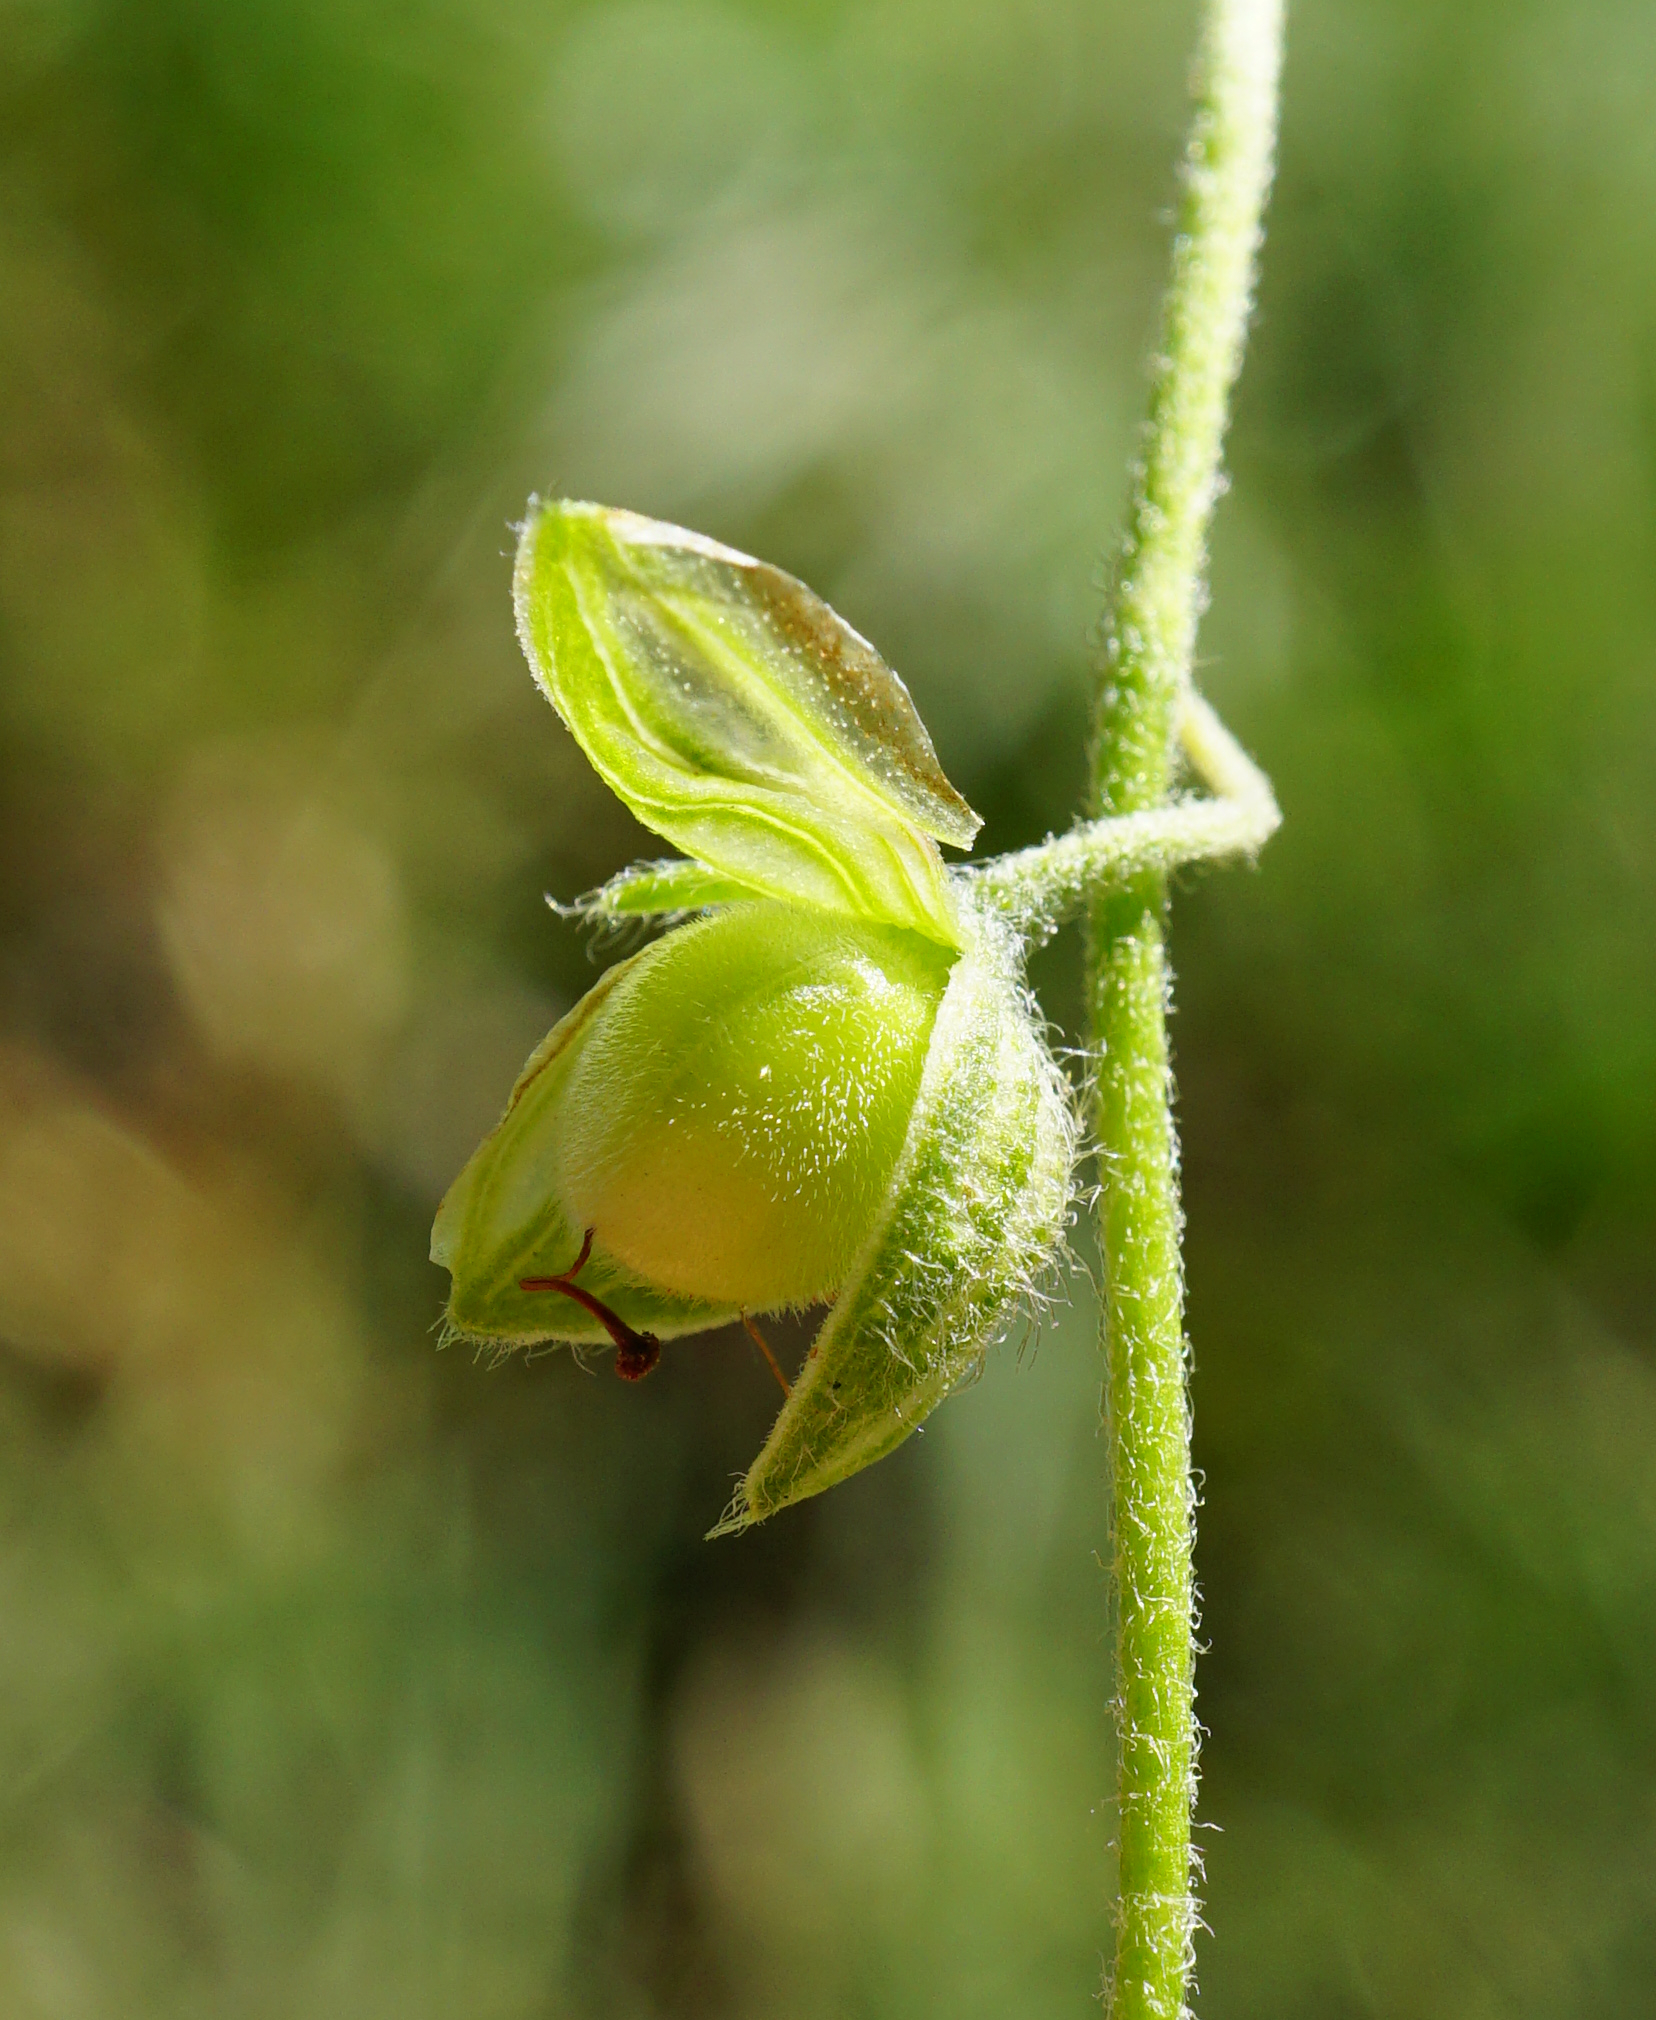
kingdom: Plantae
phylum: Tracheophyta
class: Magnoliopsida
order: Malvales
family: Cistaceae
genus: Helianthemum
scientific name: Helianthemum nummularium
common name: Common rock-rose
